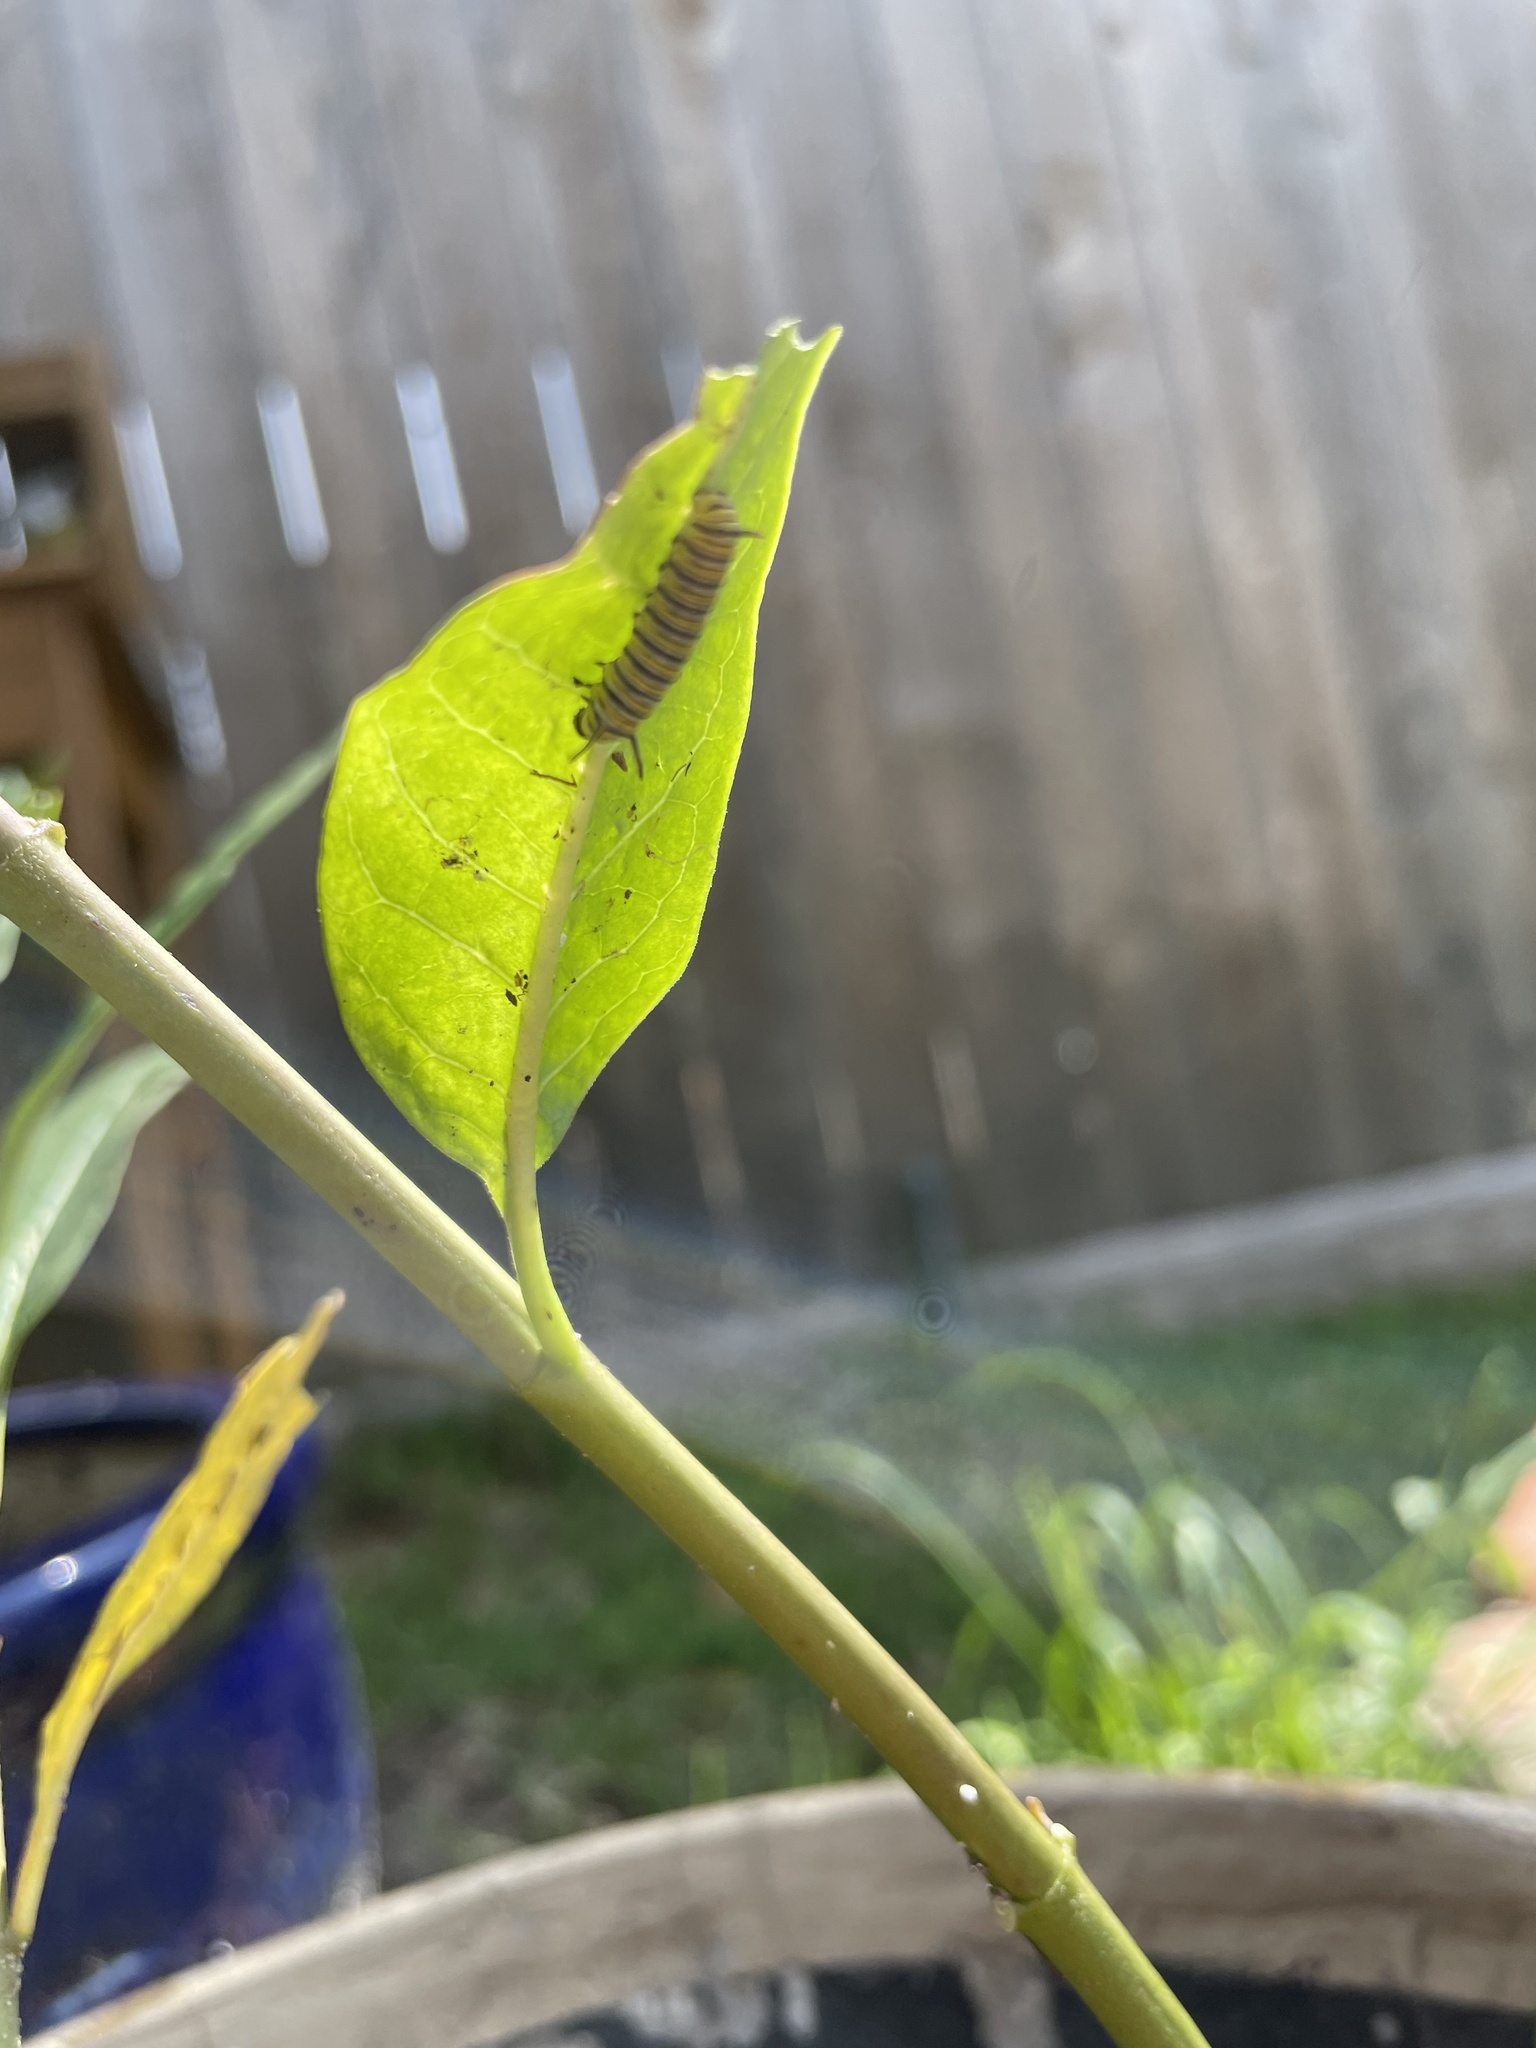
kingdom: Animalia
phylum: Arthropoda
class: Insecta
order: Lepidoptera
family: Nymphalidae
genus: Danaus
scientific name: Danaus plexippus
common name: Monarch
